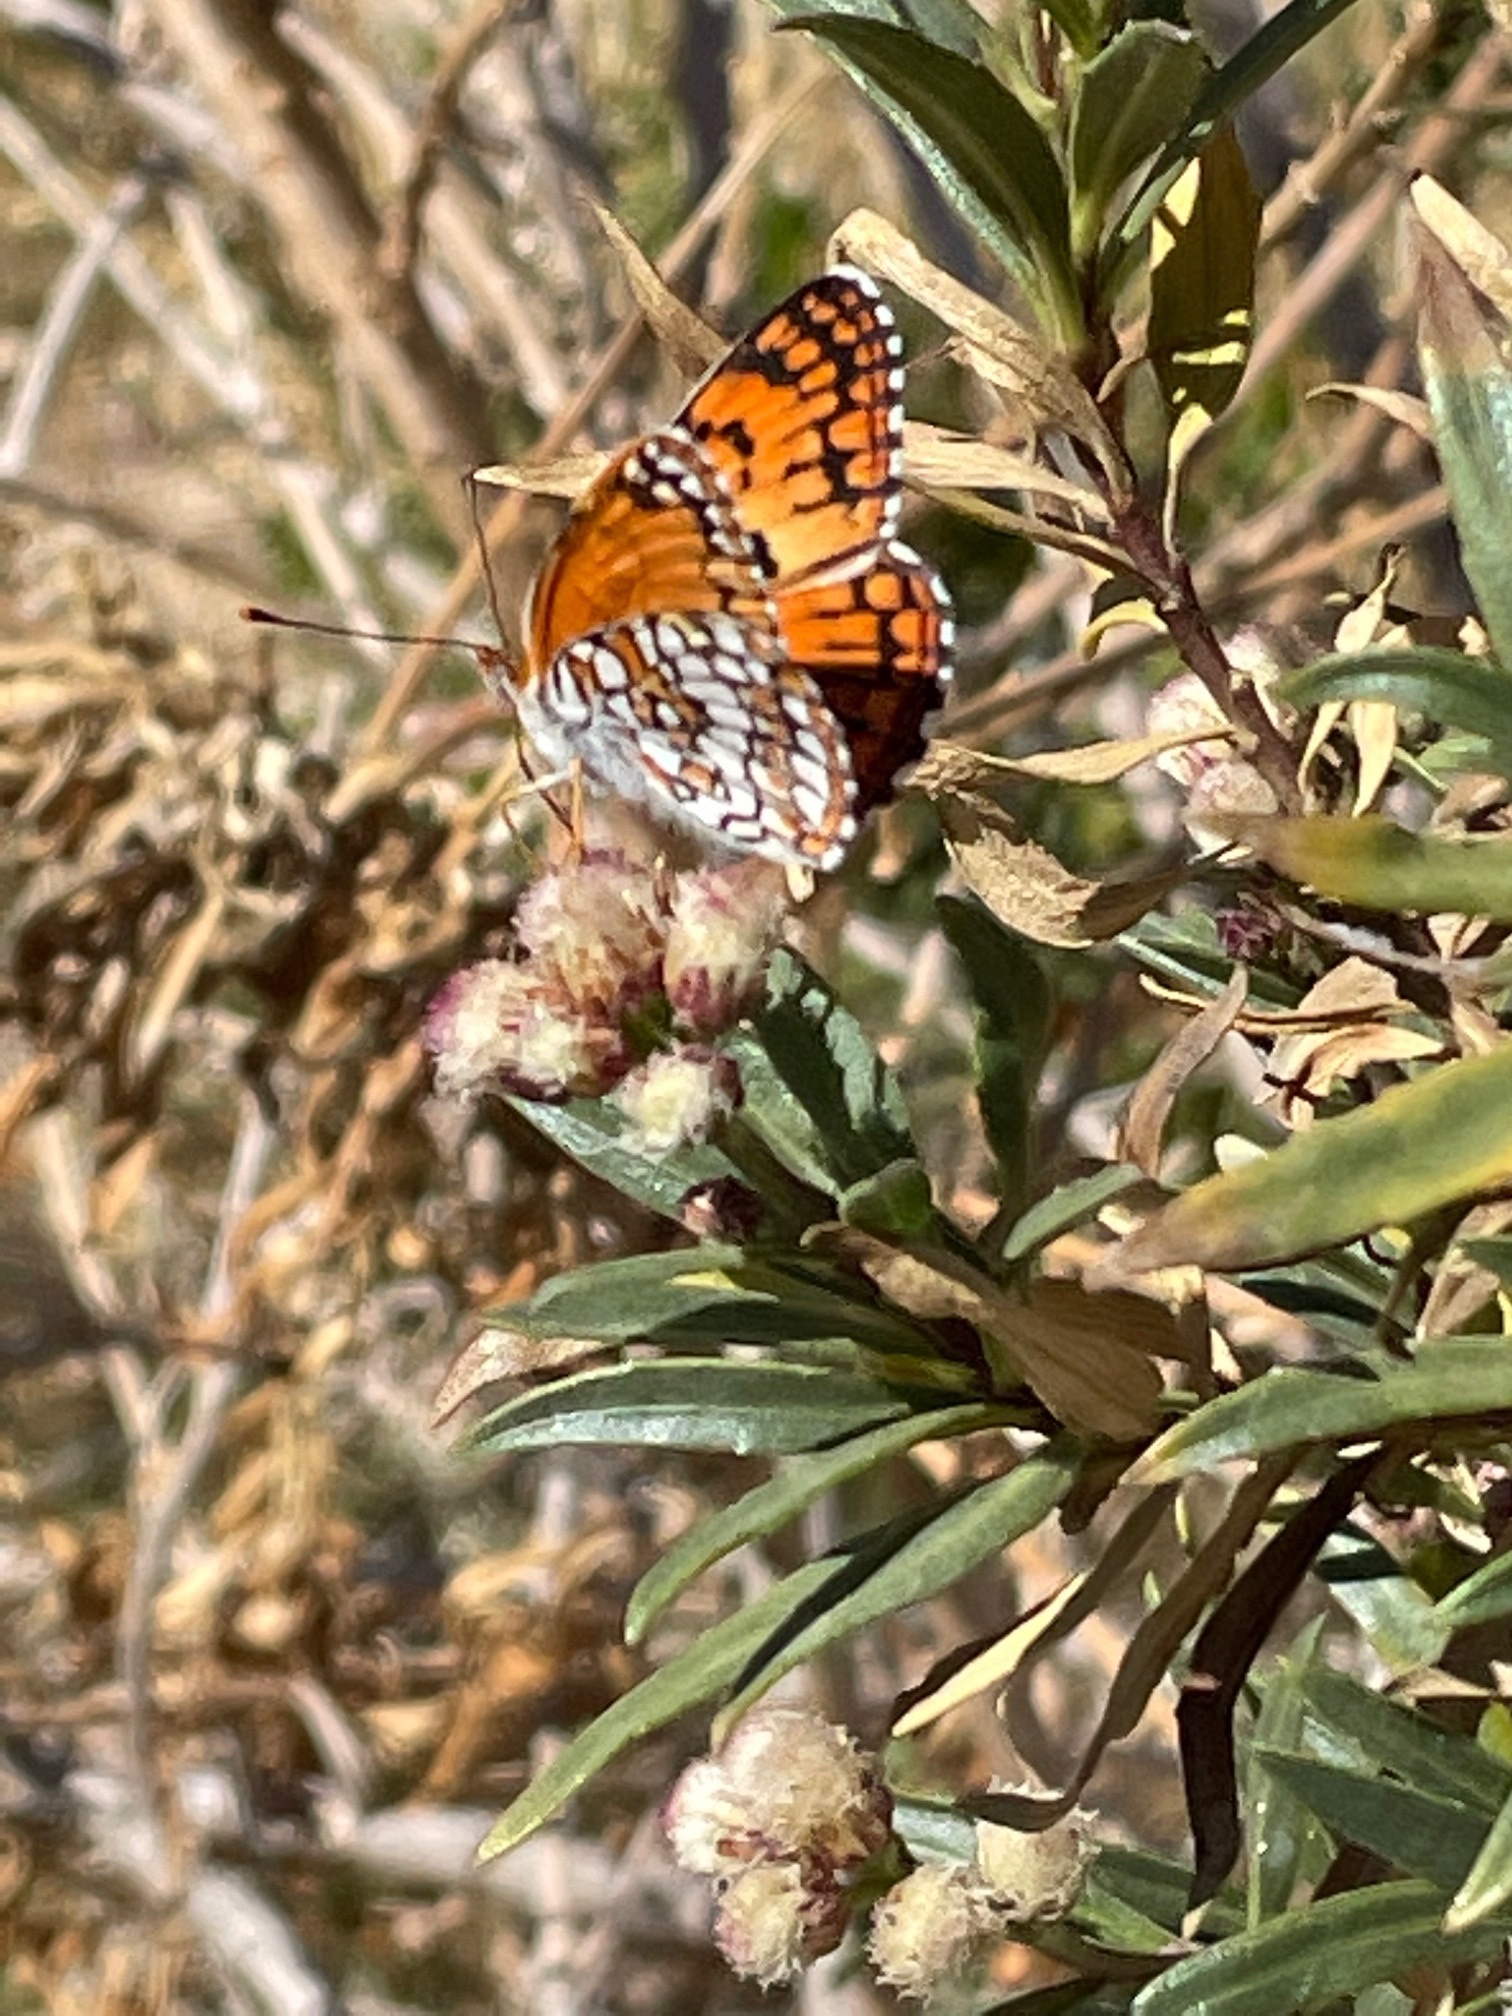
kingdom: Animalia
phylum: Arthropoda
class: Insecta
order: Lepidoptera
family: Nymphalidae
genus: Chlosyne
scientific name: Chlosyne acastus
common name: Sagebrush checkerspot
